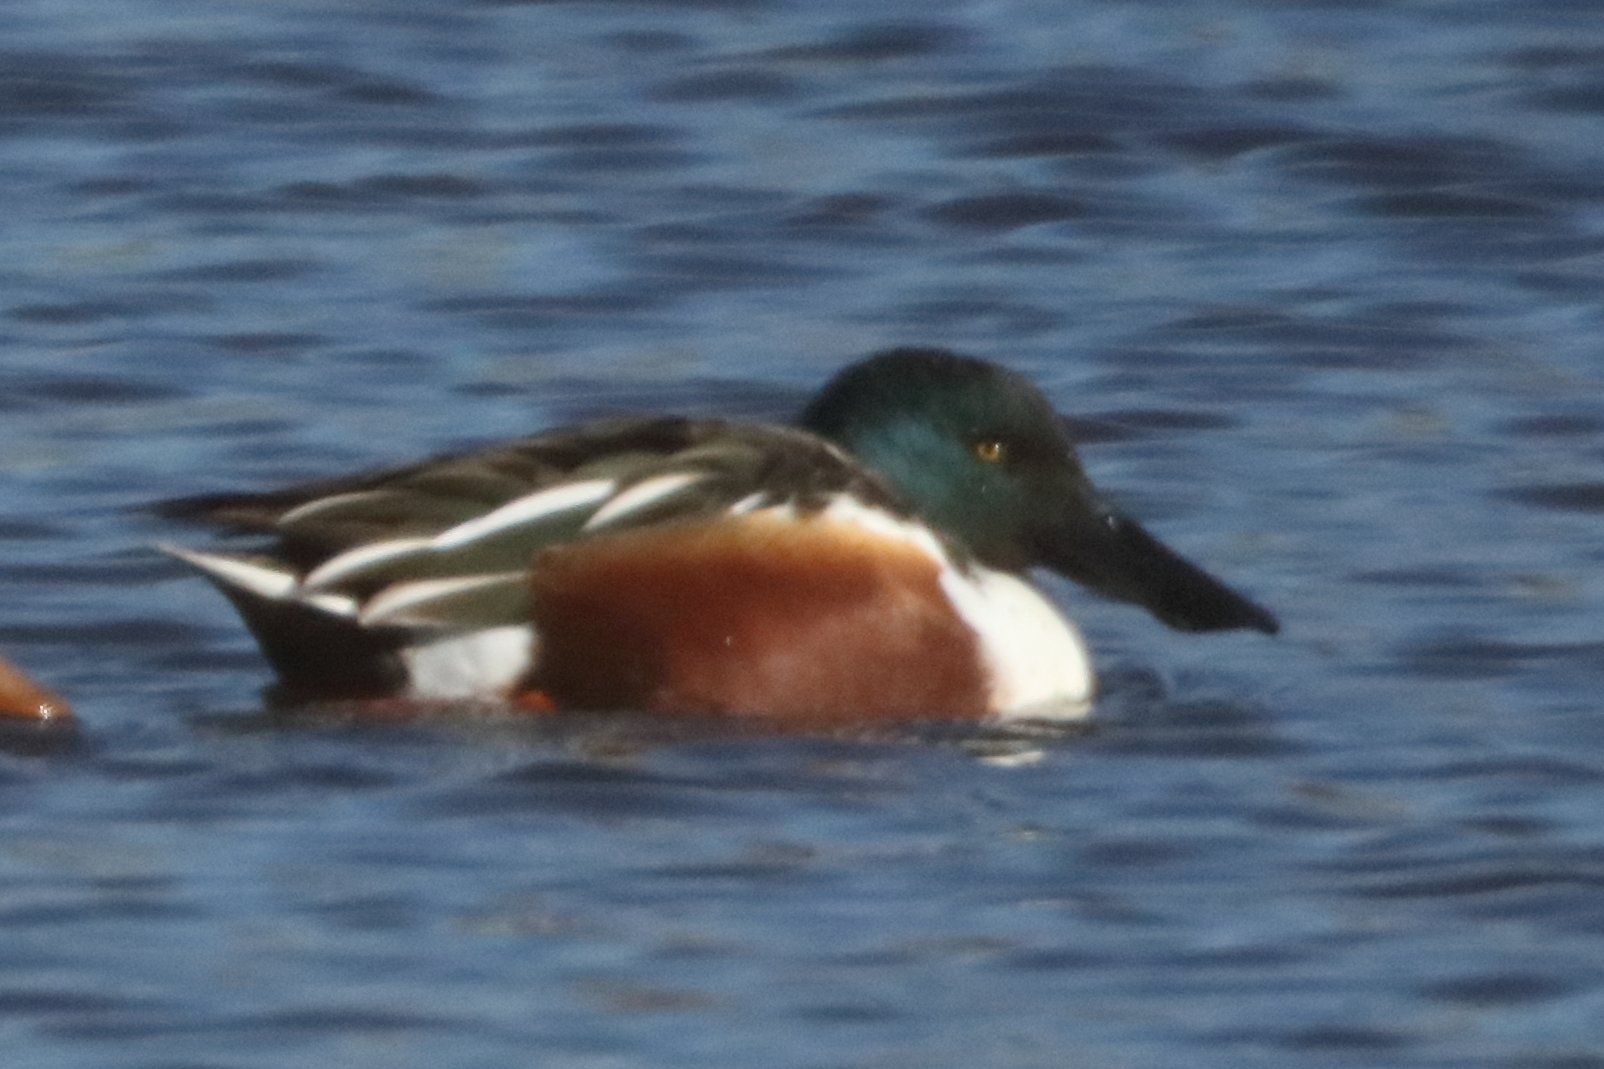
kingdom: Animalia
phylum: Chordata
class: Aves
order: Anseriformes
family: Anatidae
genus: Spatula
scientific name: Spatula clypeata
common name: Northern shoveler
